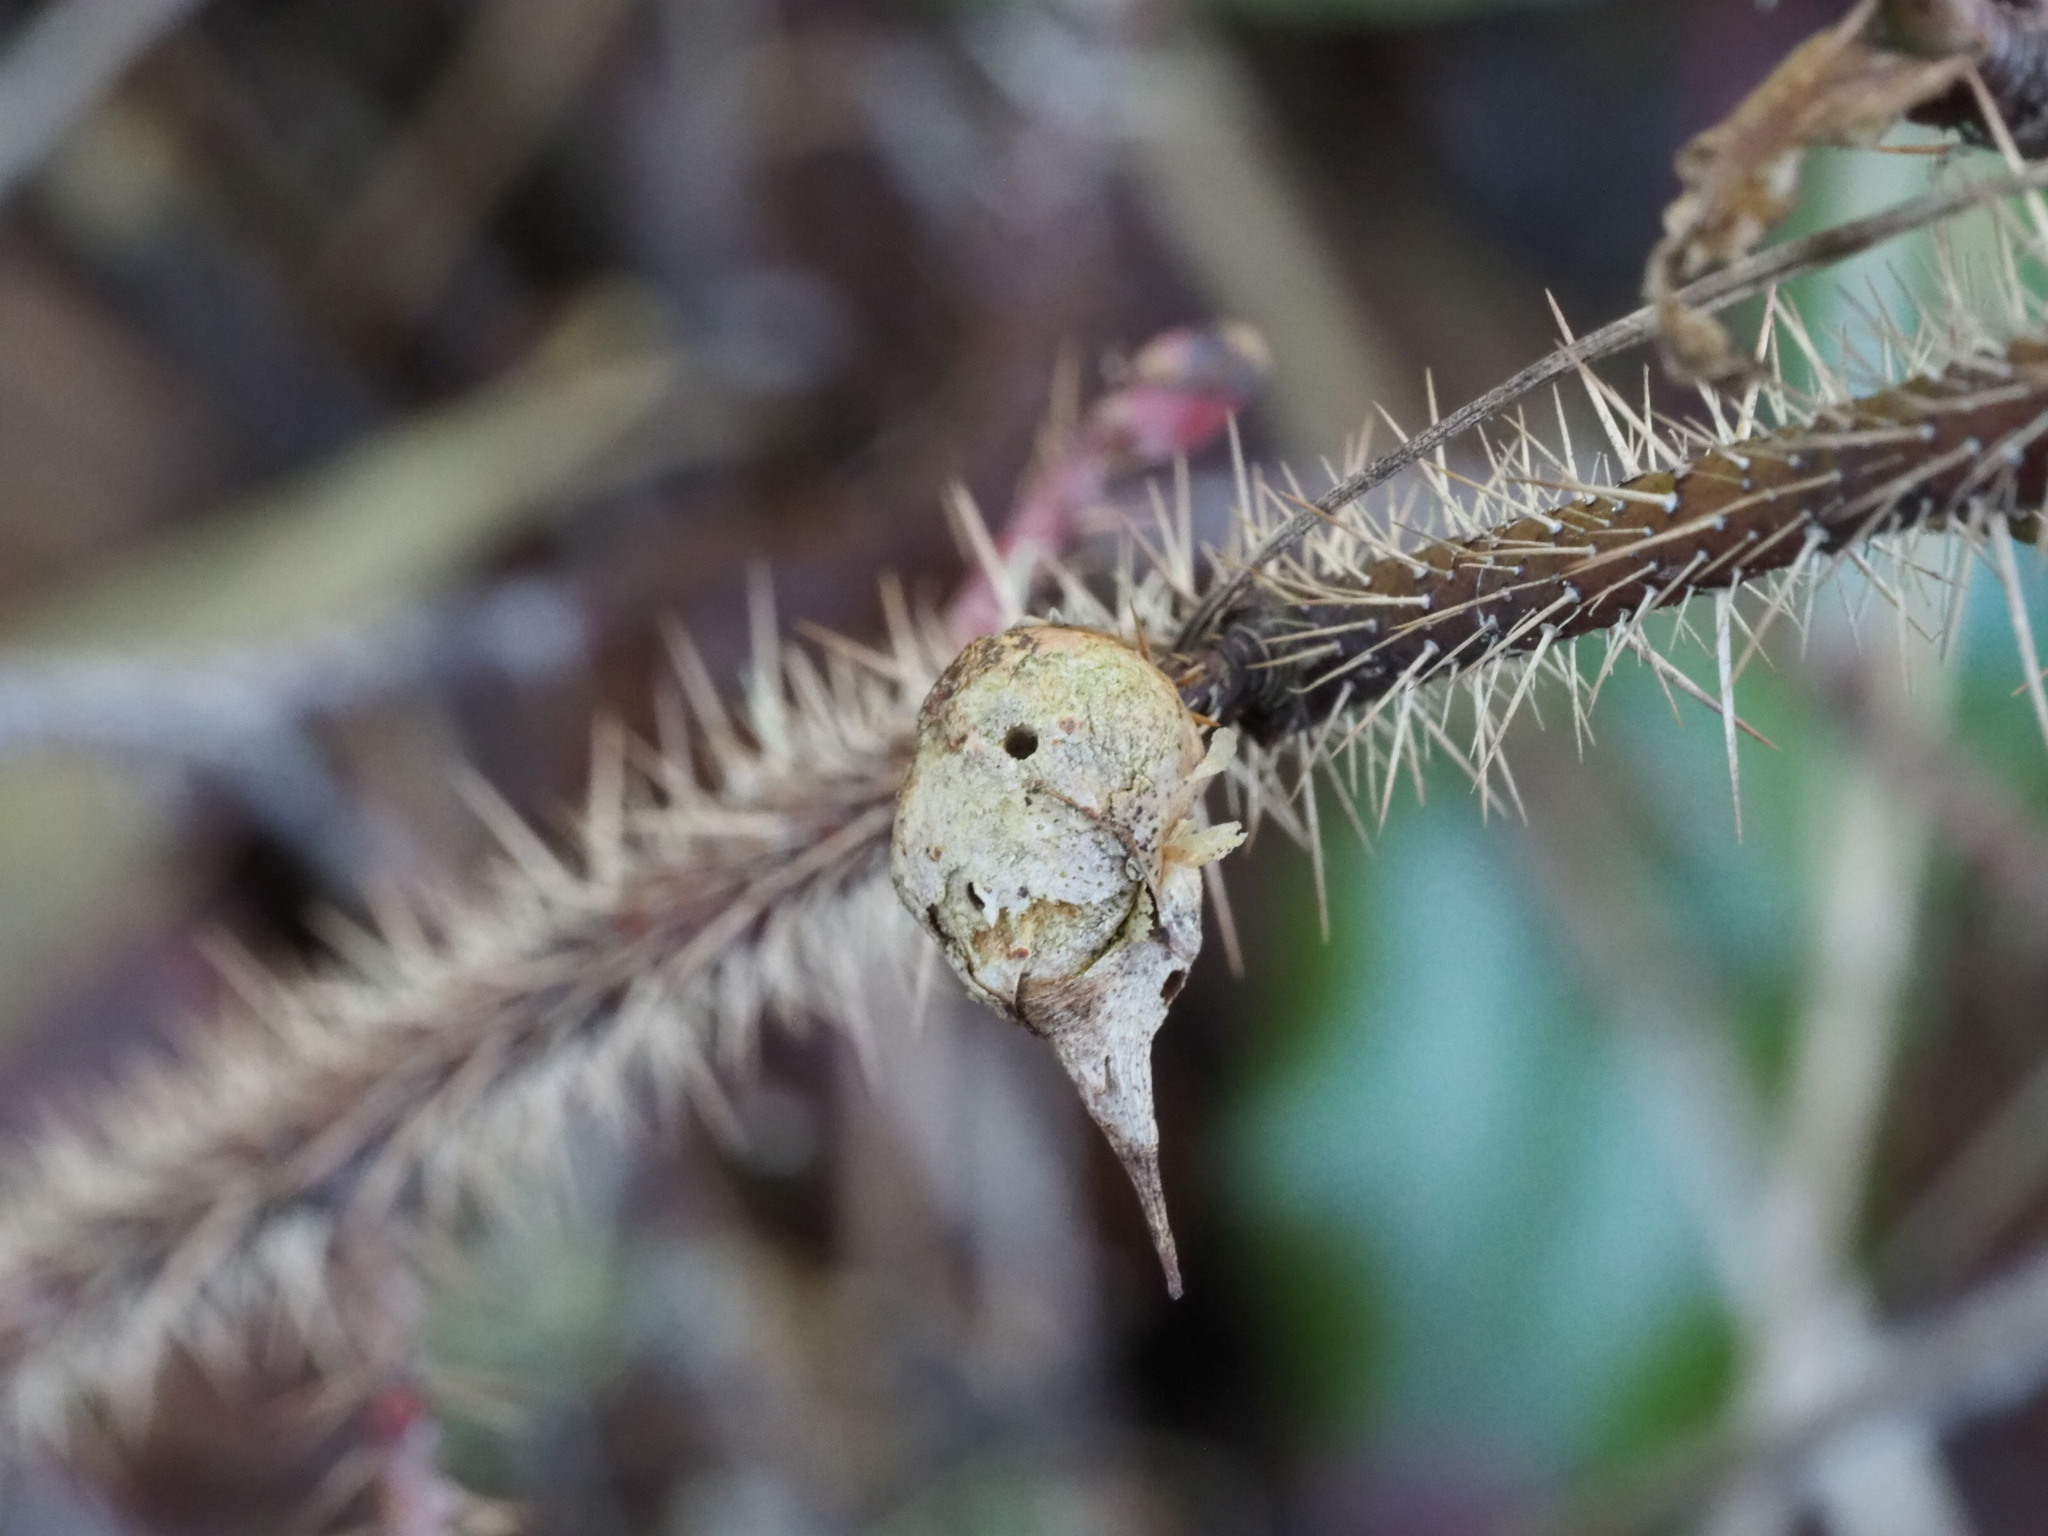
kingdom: Animalia
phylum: Arthropoda
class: Insecta
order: Hymenoptera
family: Cynipidae
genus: Diplolepis
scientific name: Diplolepis
